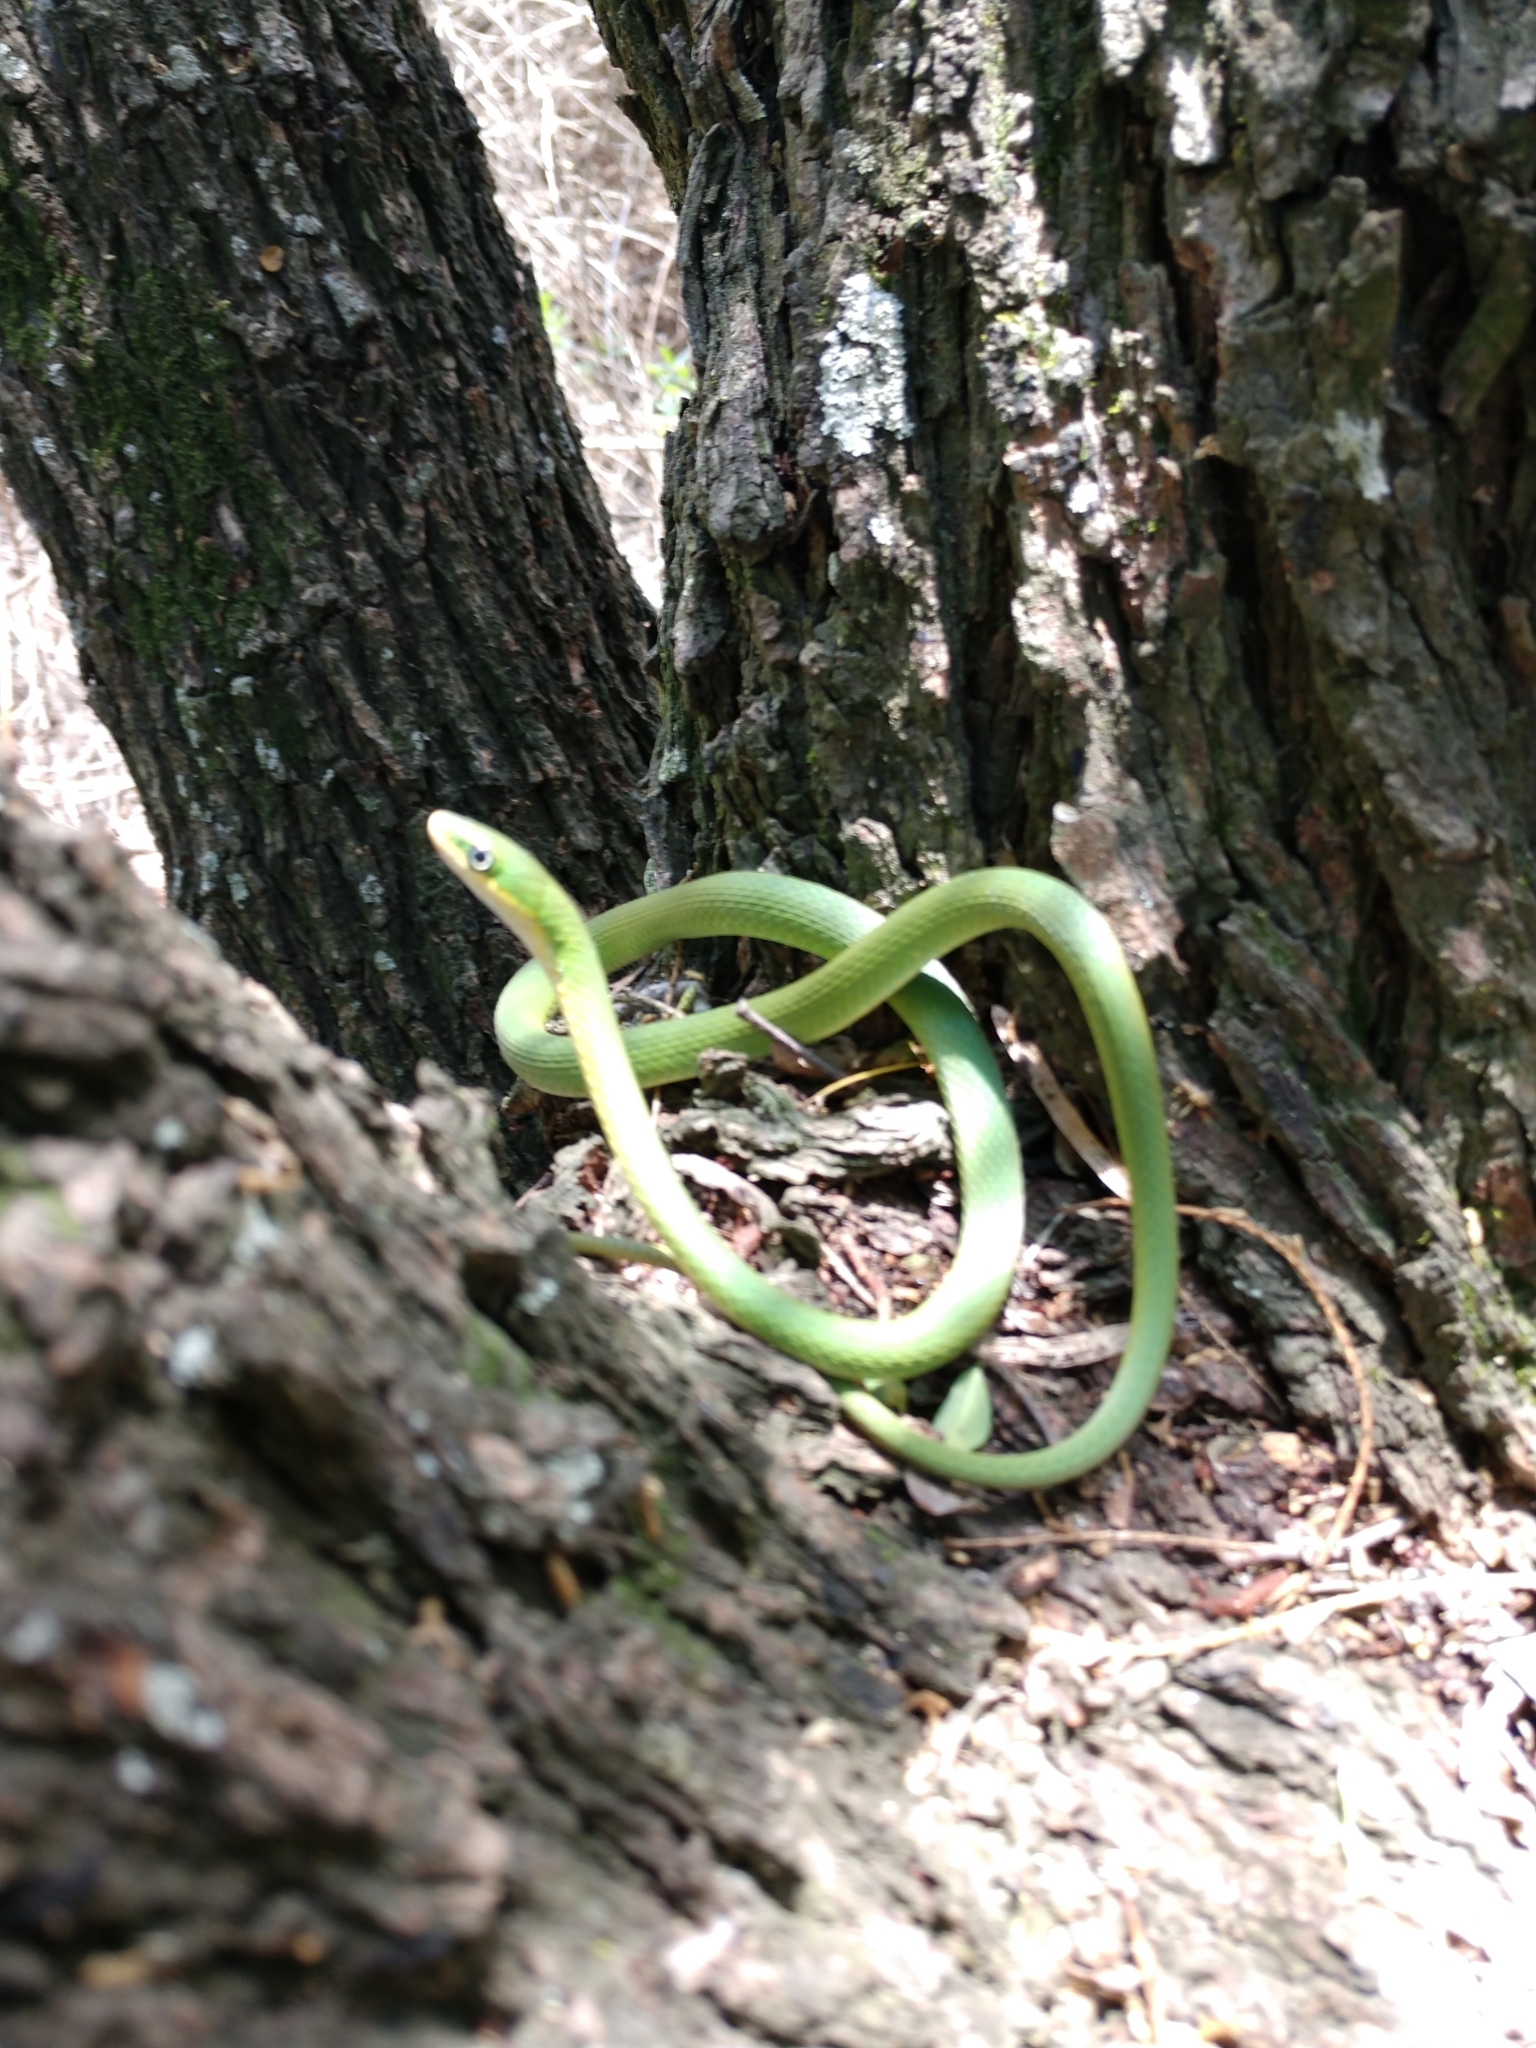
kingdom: Animalia
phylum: Chordata
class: Squamata
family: Colubridae
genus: Opheodrys
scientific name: Opheodrys aestivus
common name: Rough greensnake
